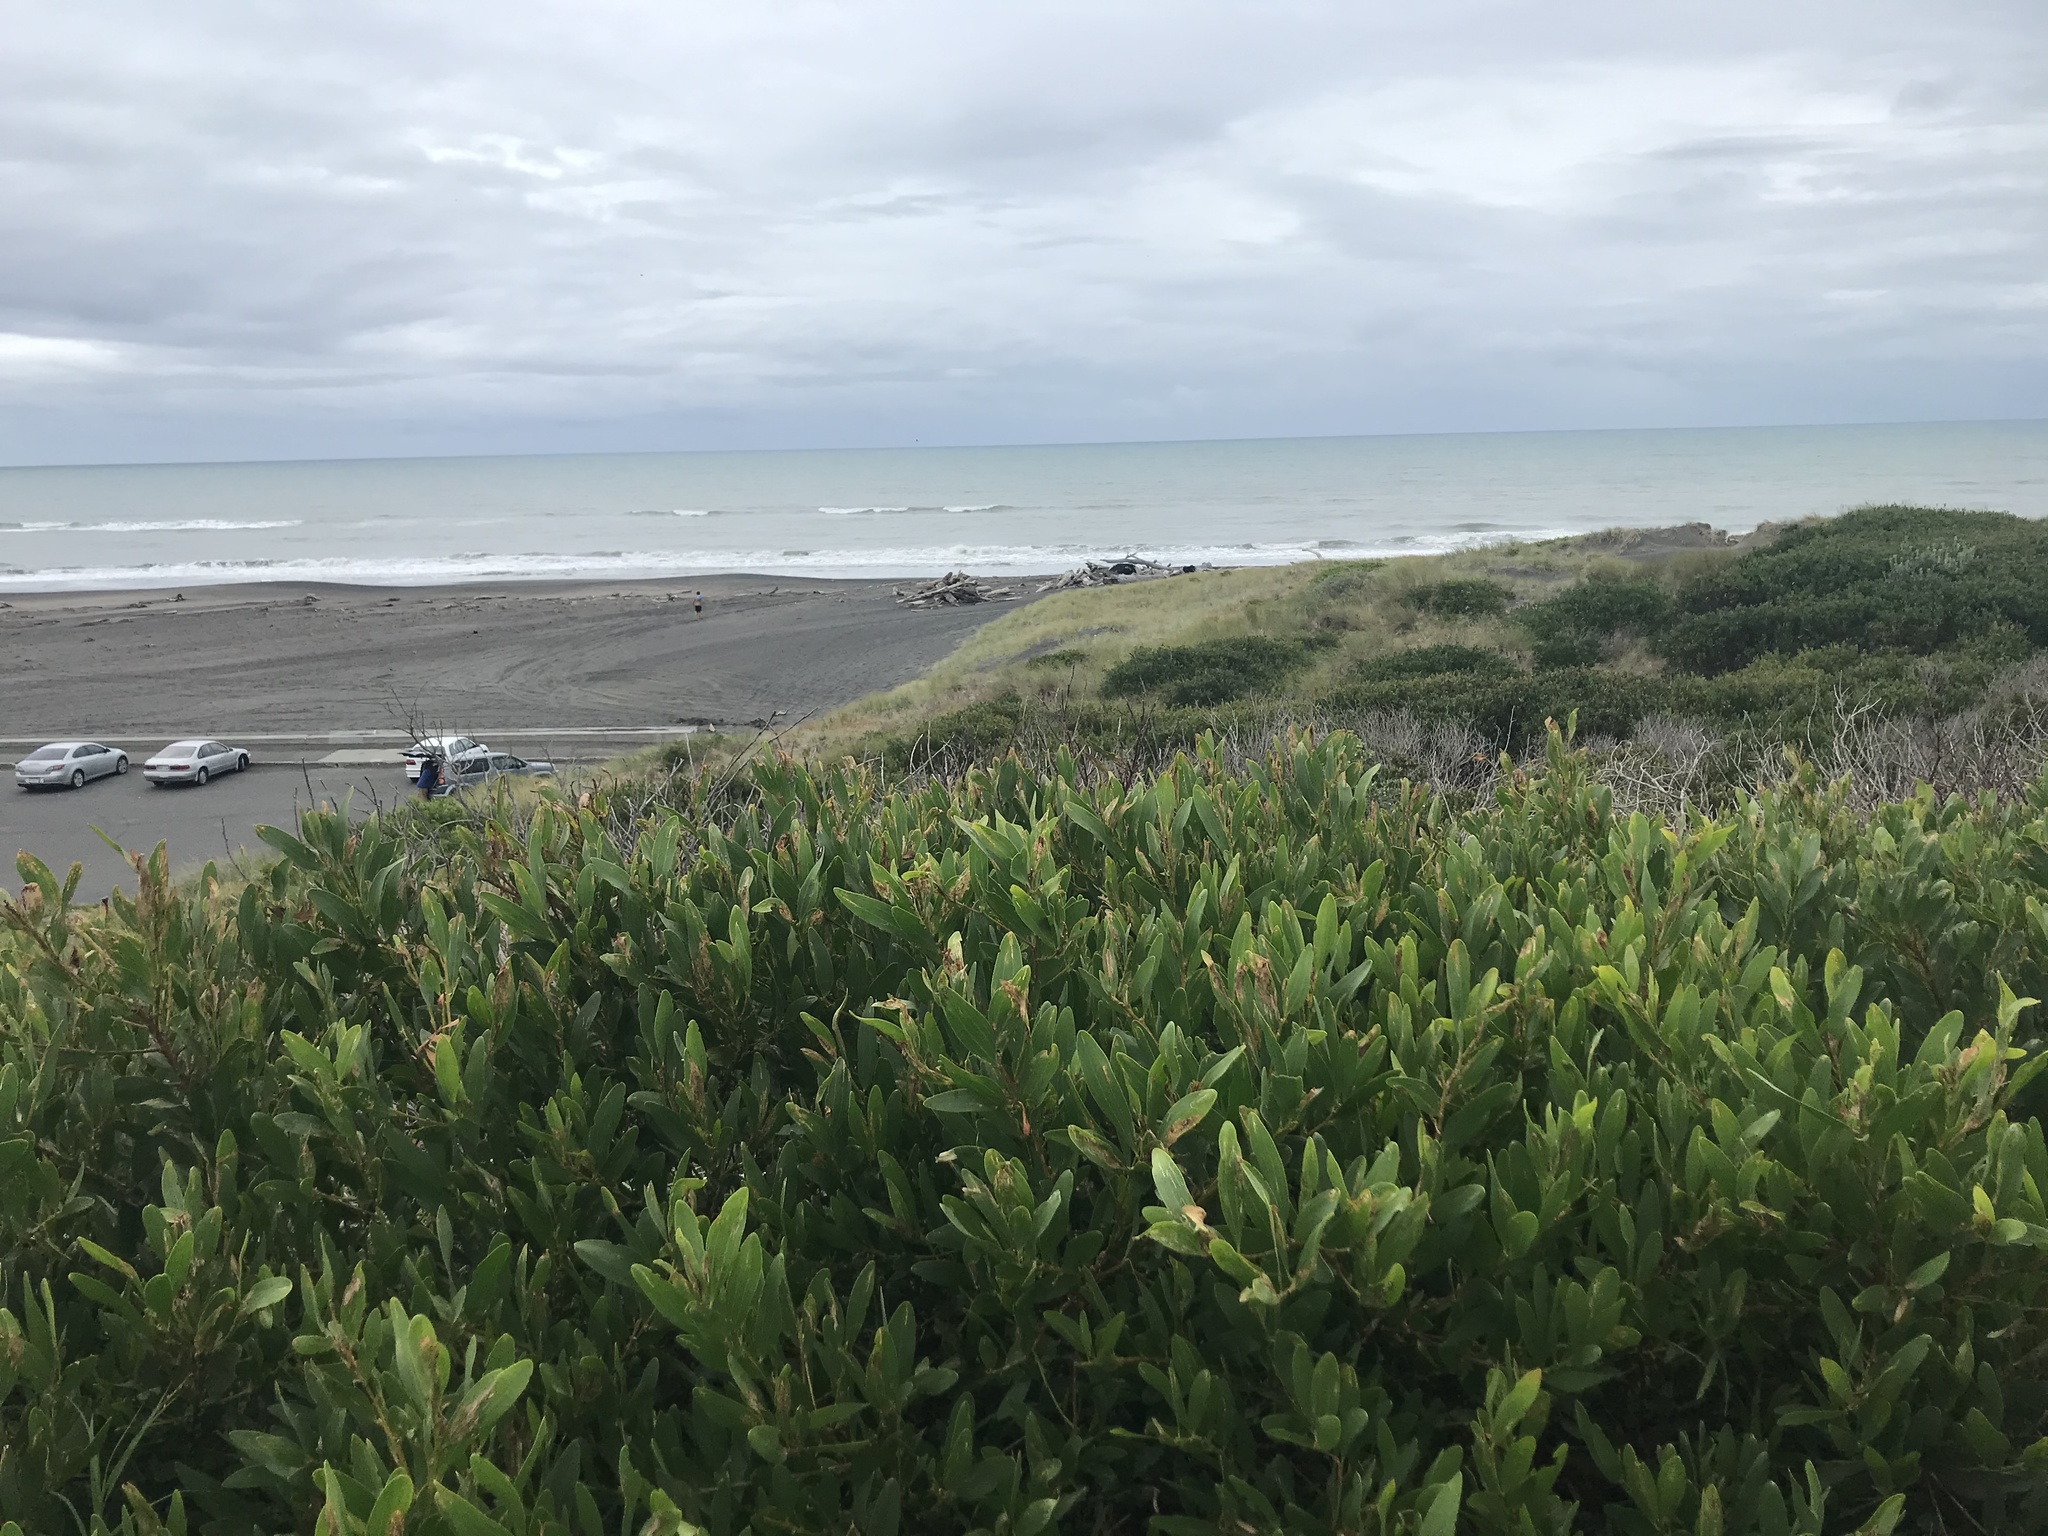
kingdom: Plantae
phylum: Tracheophyta
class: Magnoliopsida
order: Fabales
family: Fabaceae
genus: Acacia
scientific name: Acacia longifolia
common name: Sydney golden wattle
